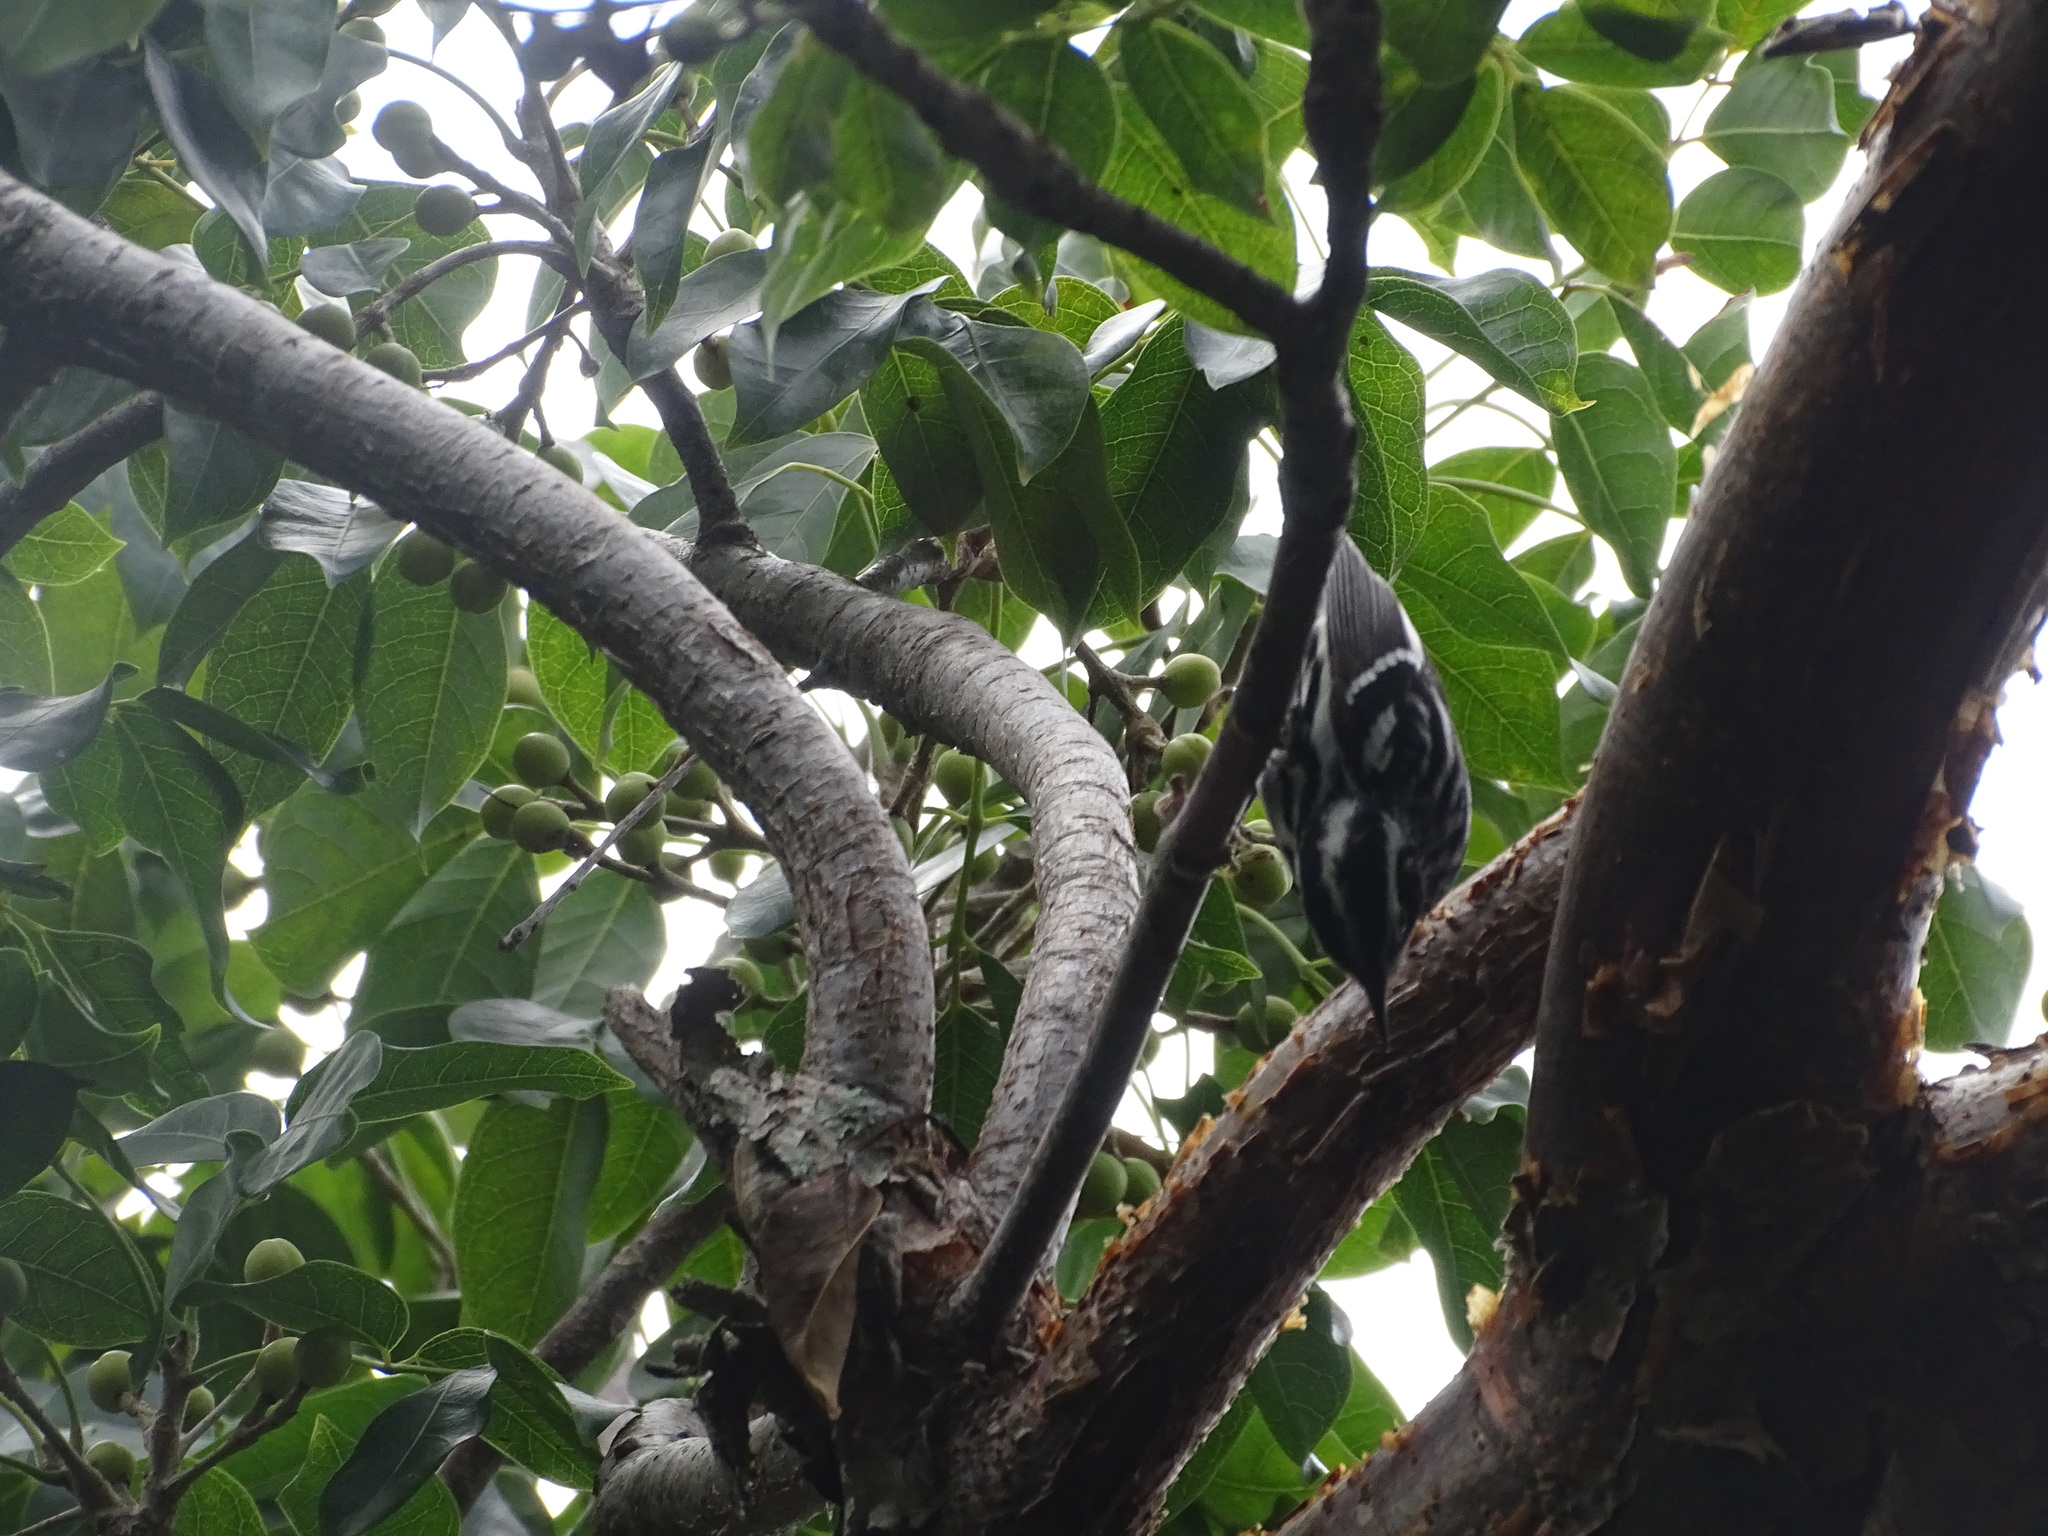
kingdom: Animalia
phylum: Chordata
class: Aves
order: Passeriformes
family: Parulidae
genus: Mniotilta
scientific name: Mniotilta varia
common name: Black-and-white warbler
